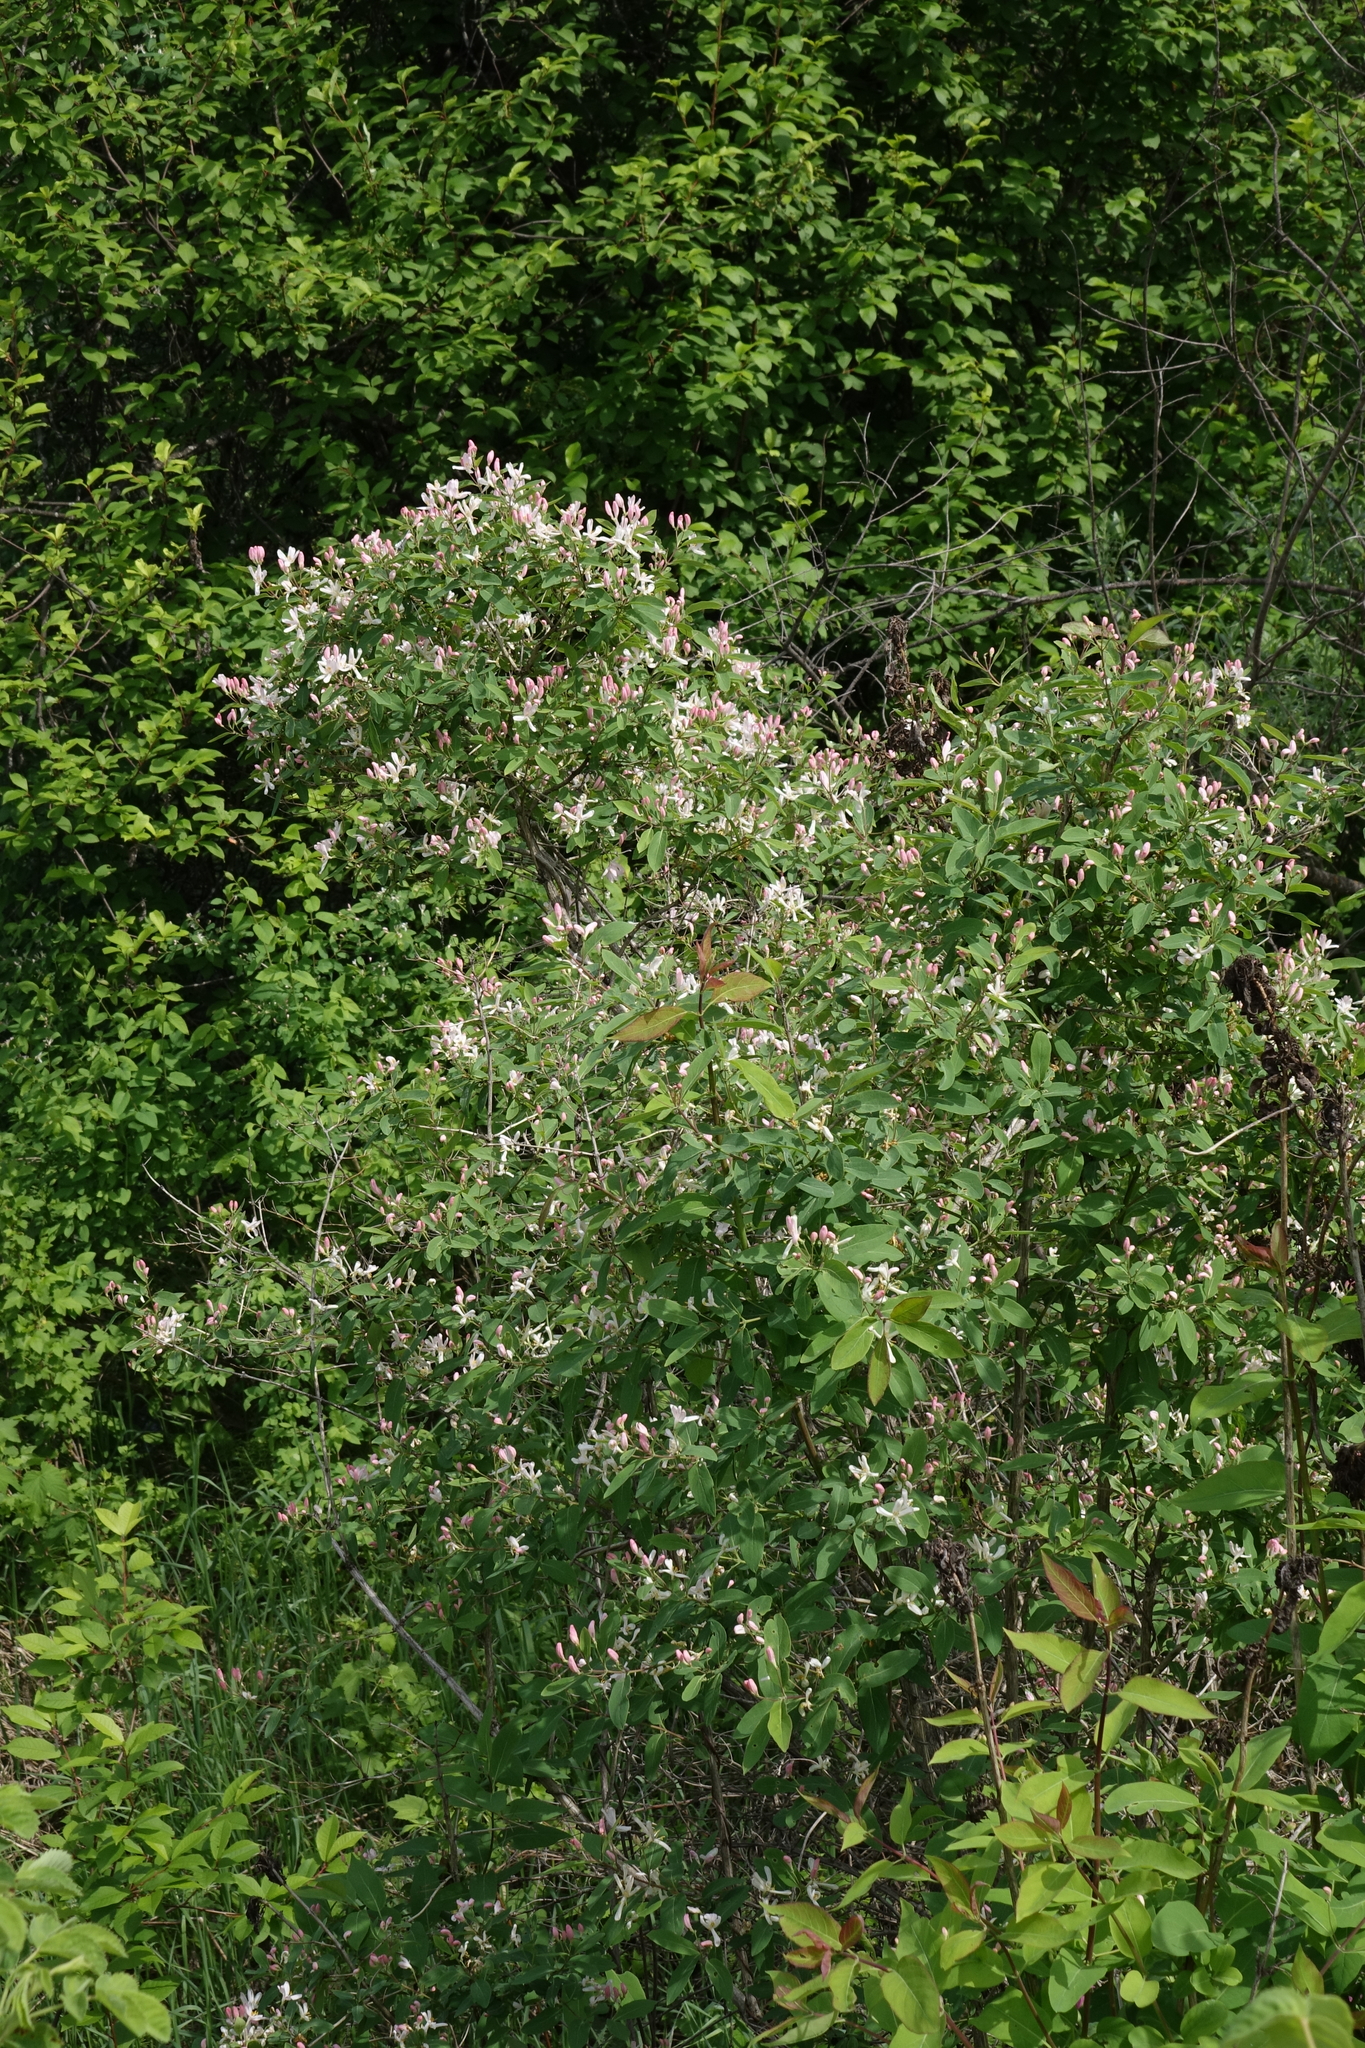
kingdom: Plantae
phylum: Tracheophyta
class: Magnoliopsida
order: Dipsacales
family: Caprifoliaceae
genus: Lonicera
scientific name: Lonicera tatarica
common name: Tatarian honeysuckle
